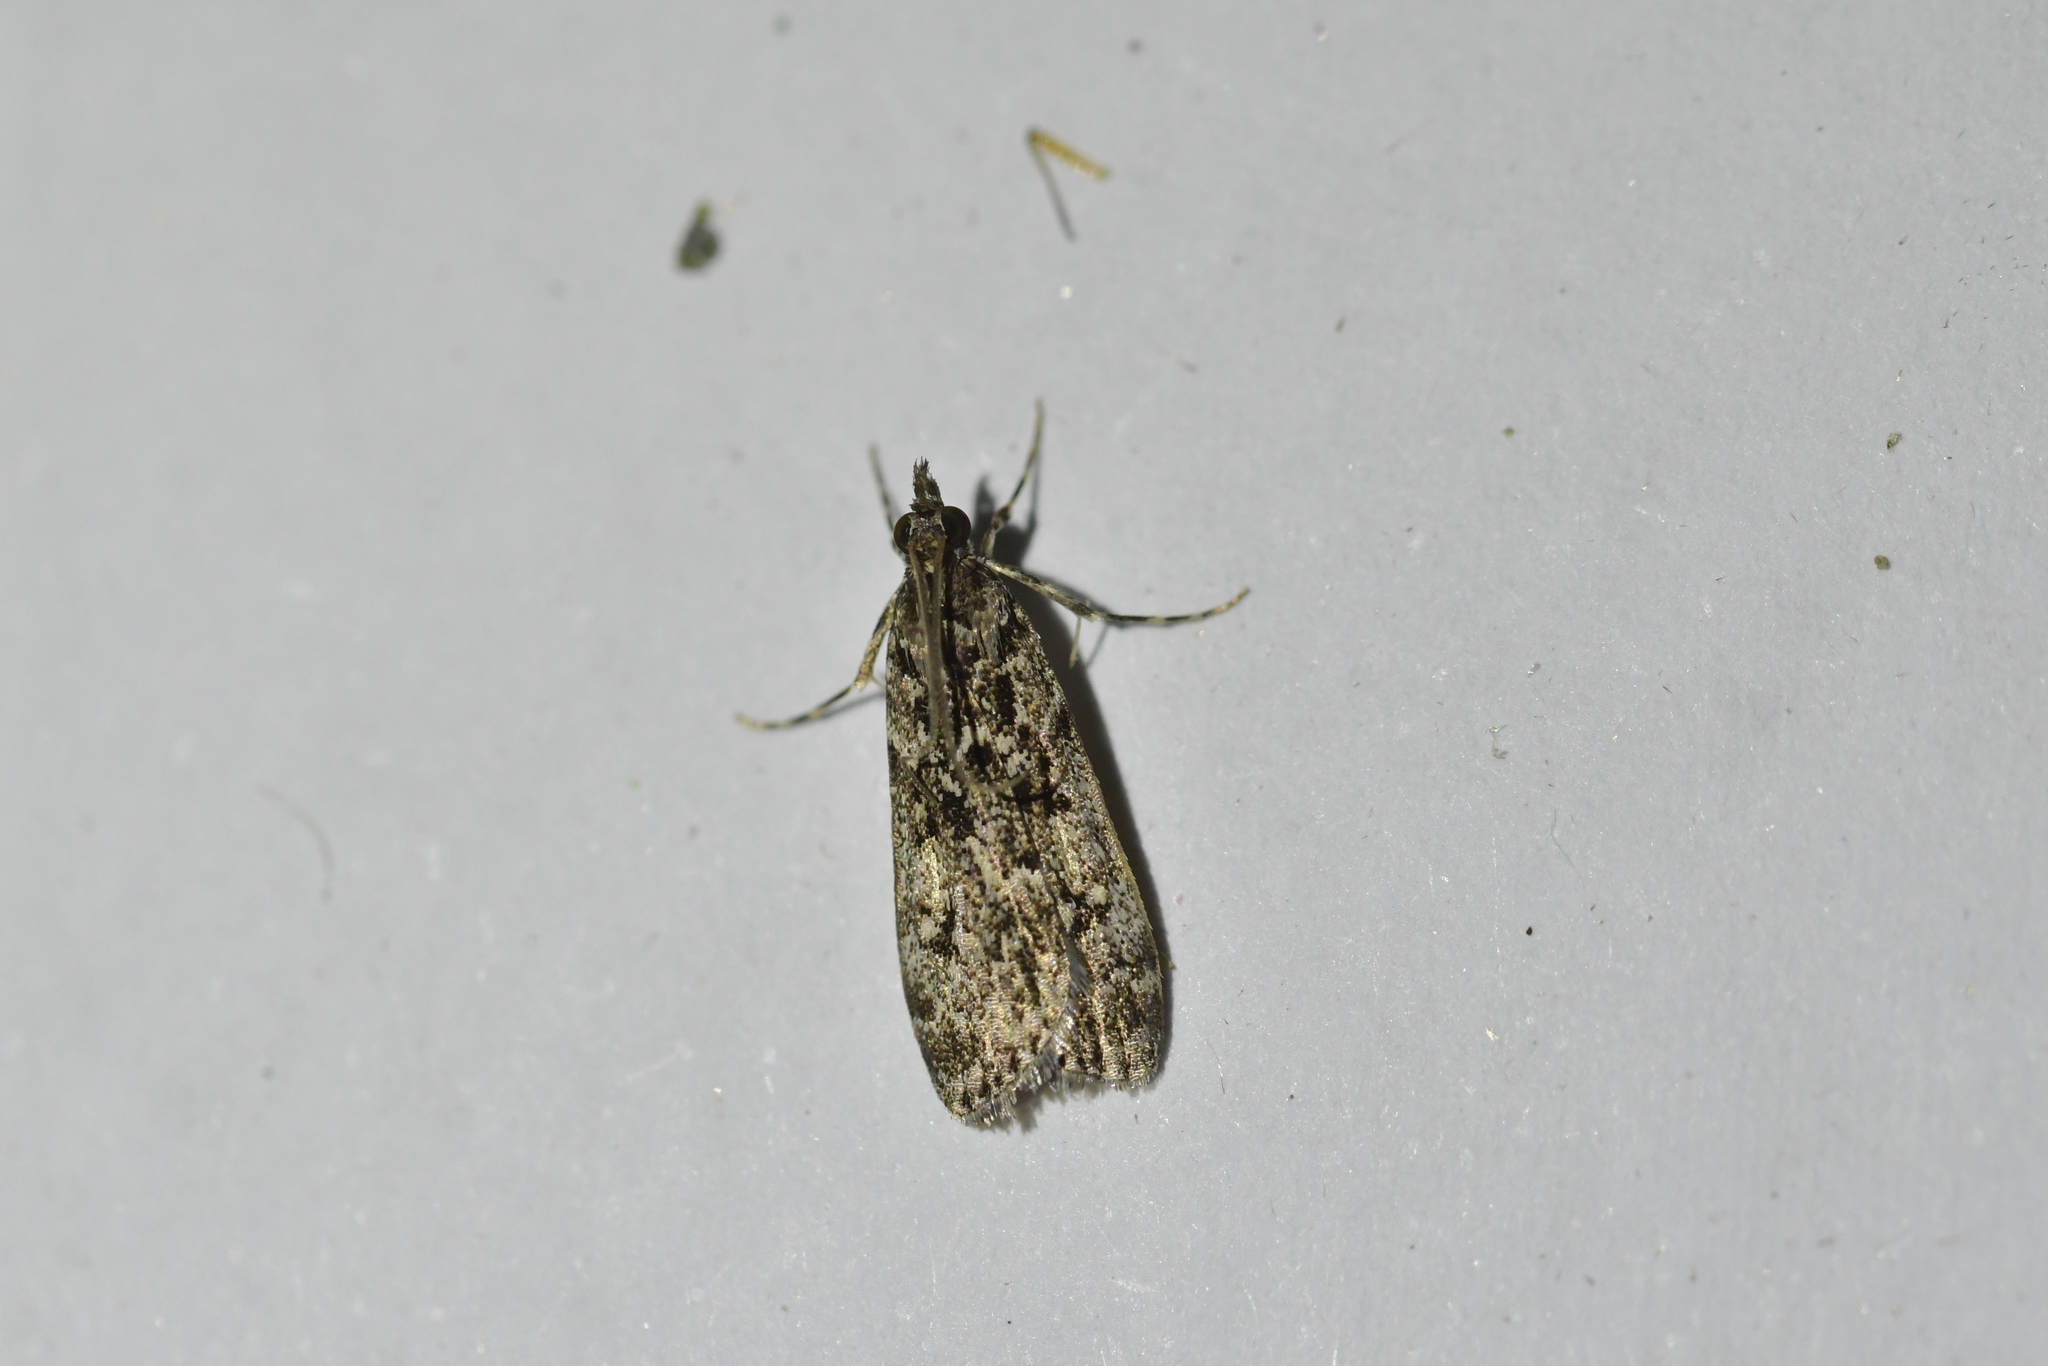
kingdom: Animalia
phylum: Arthropoda
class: Insecta
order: Lepidoptera
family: Crambidae
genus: Eudonia
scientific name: Eudonia philerga
